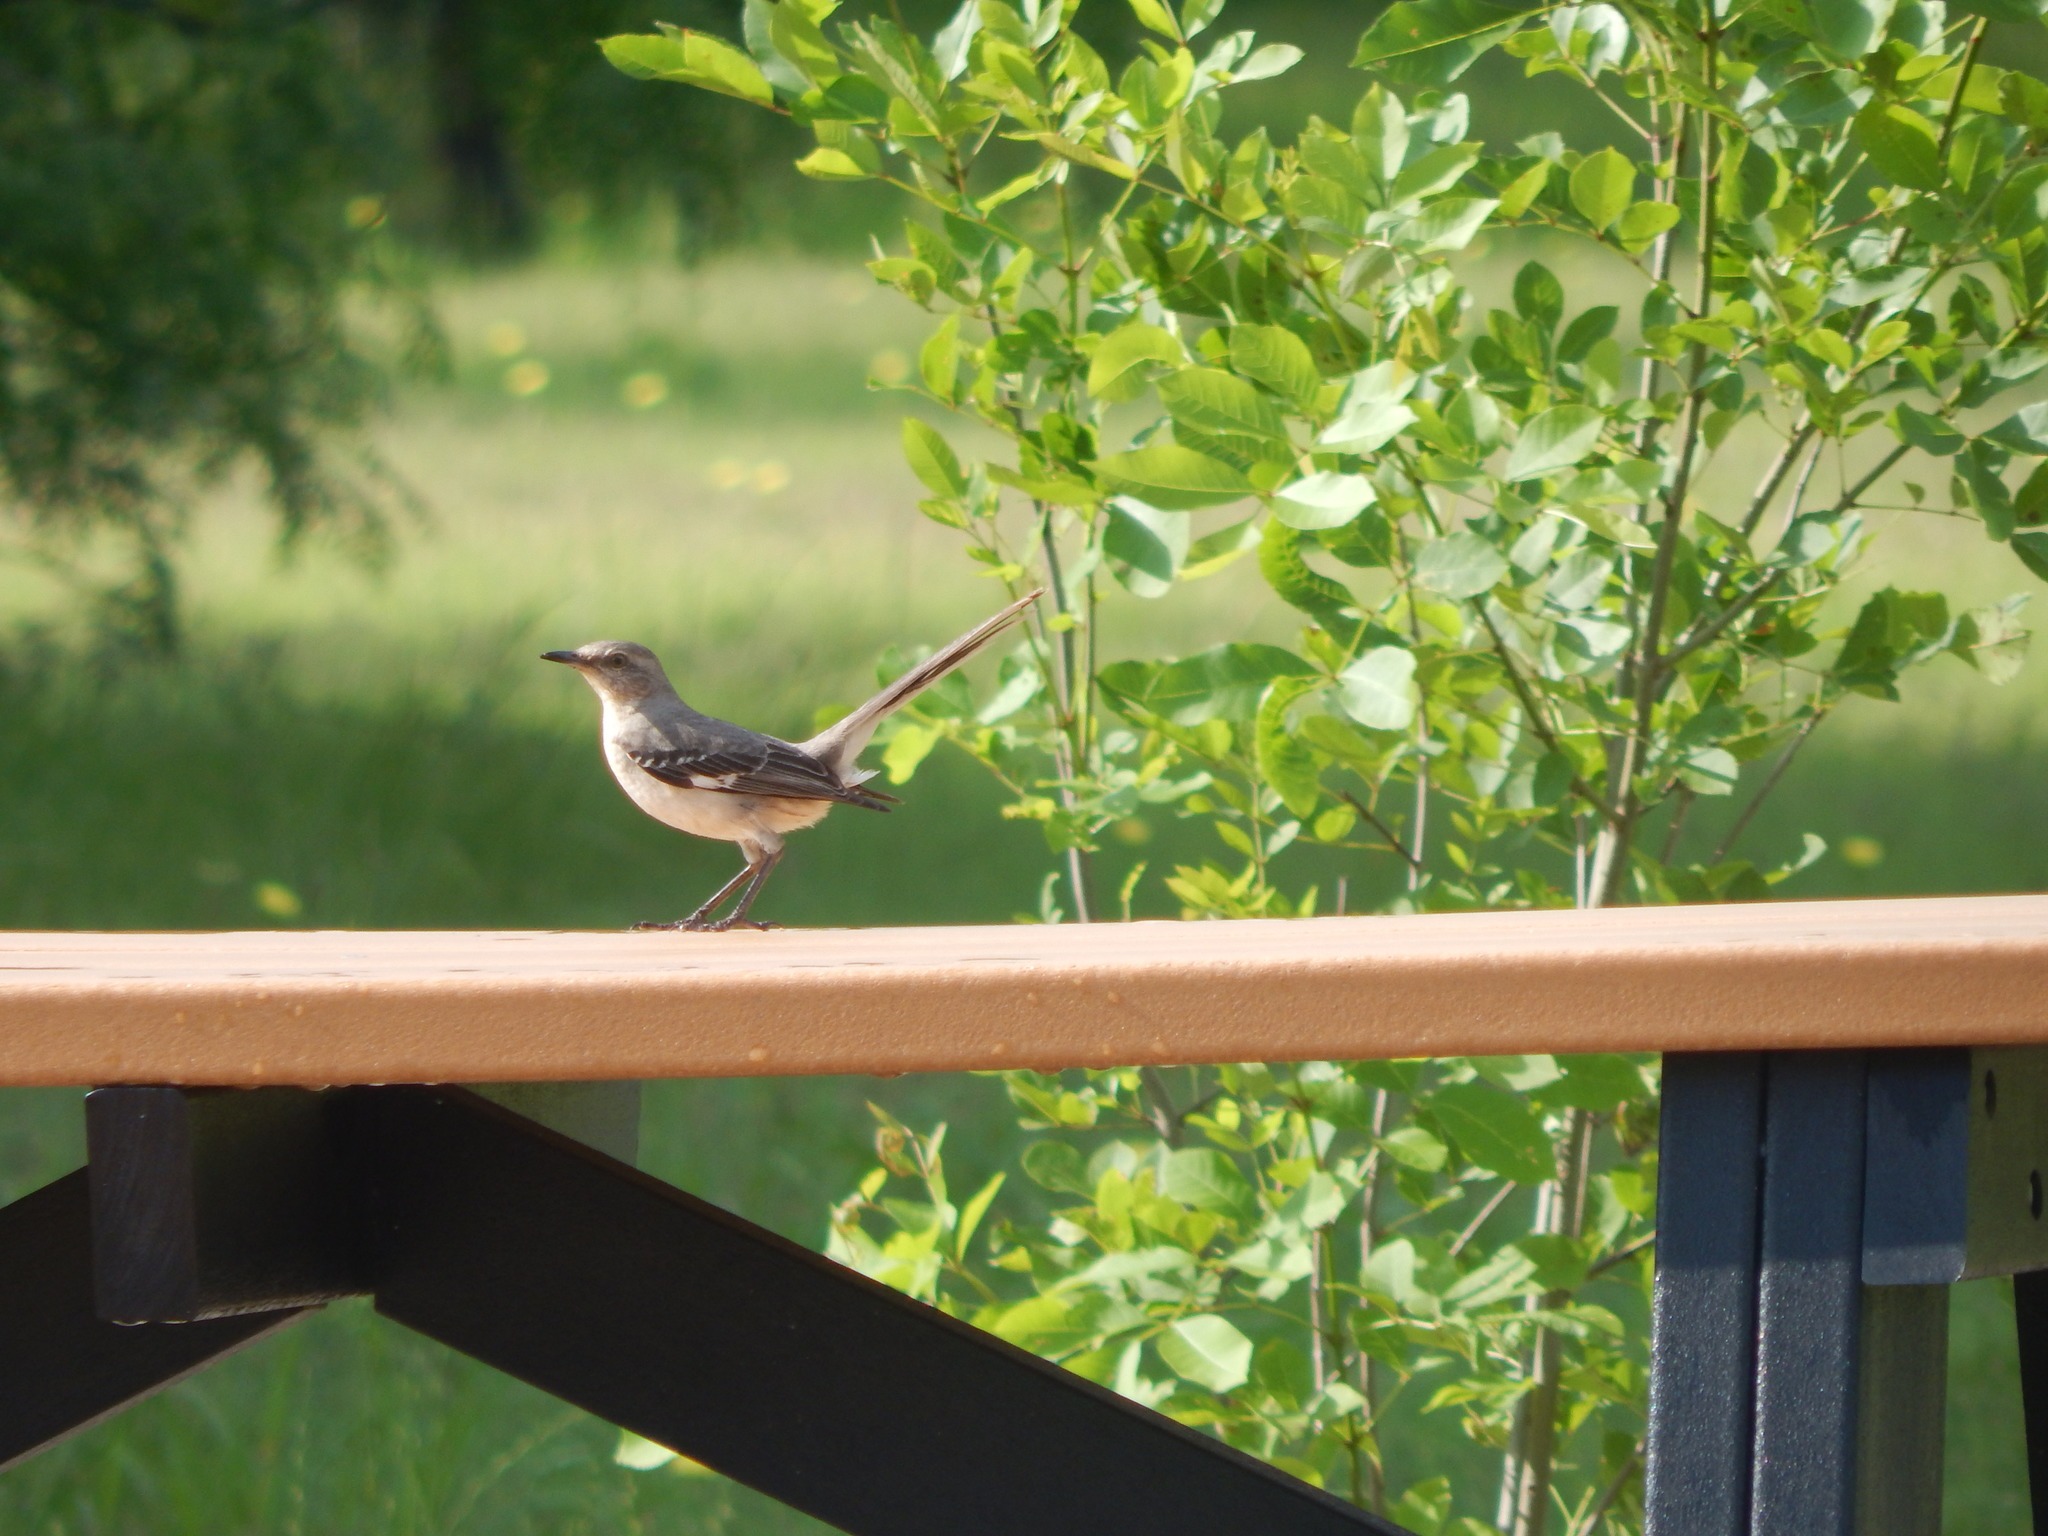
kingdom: Animalia
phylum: Chordata
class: Aves
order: Passeriformes
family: Mimidae
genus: Mimus
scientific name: Mimus polyglottos
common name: Northern mockingbird
